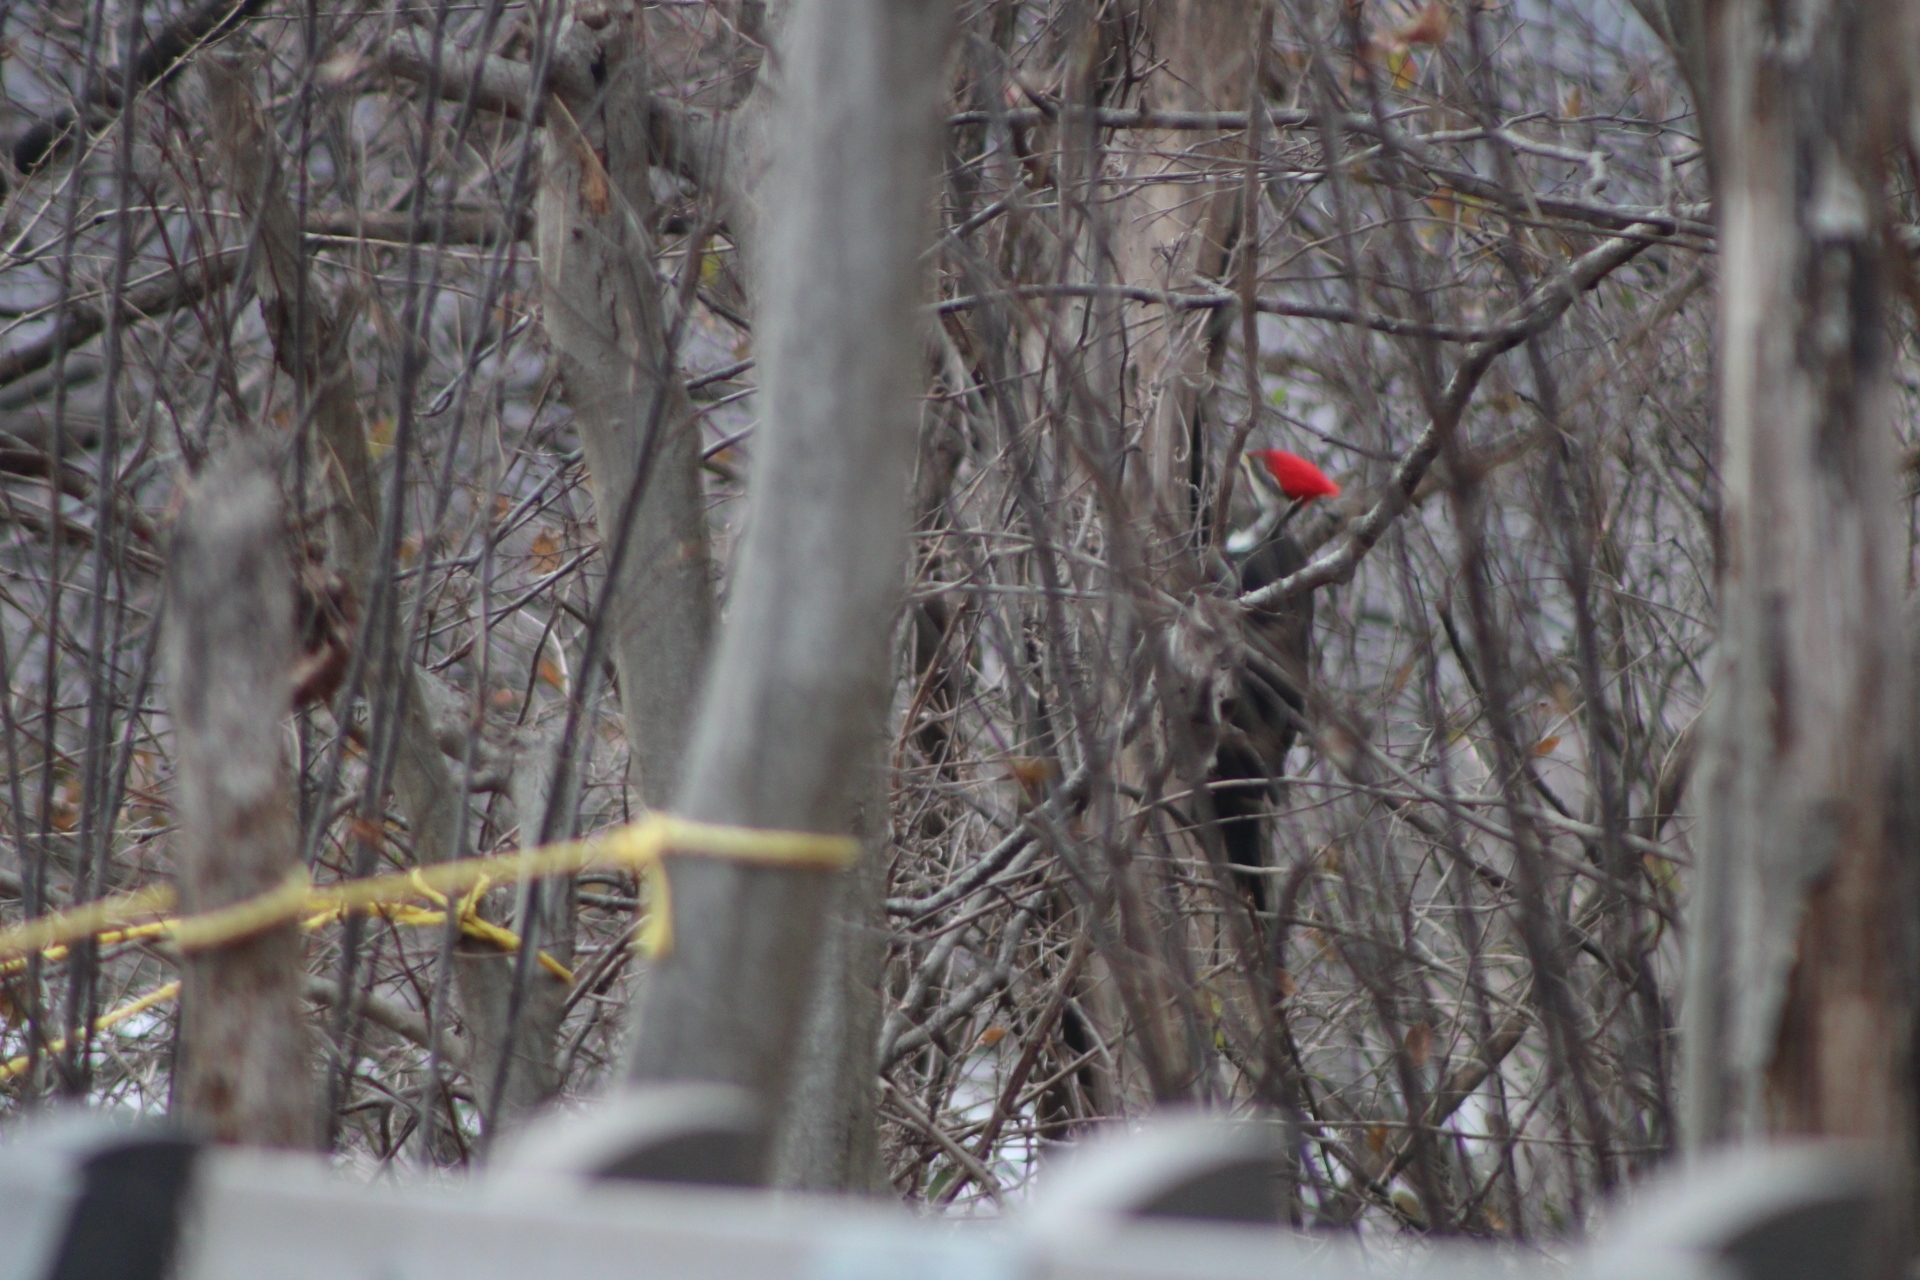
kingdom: Animalia
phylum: Chordata
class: Aves
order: Piciformes
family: Picidae
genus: Dryocopus
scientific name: Dryocopus pileatus
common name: Pileated woodpecker
